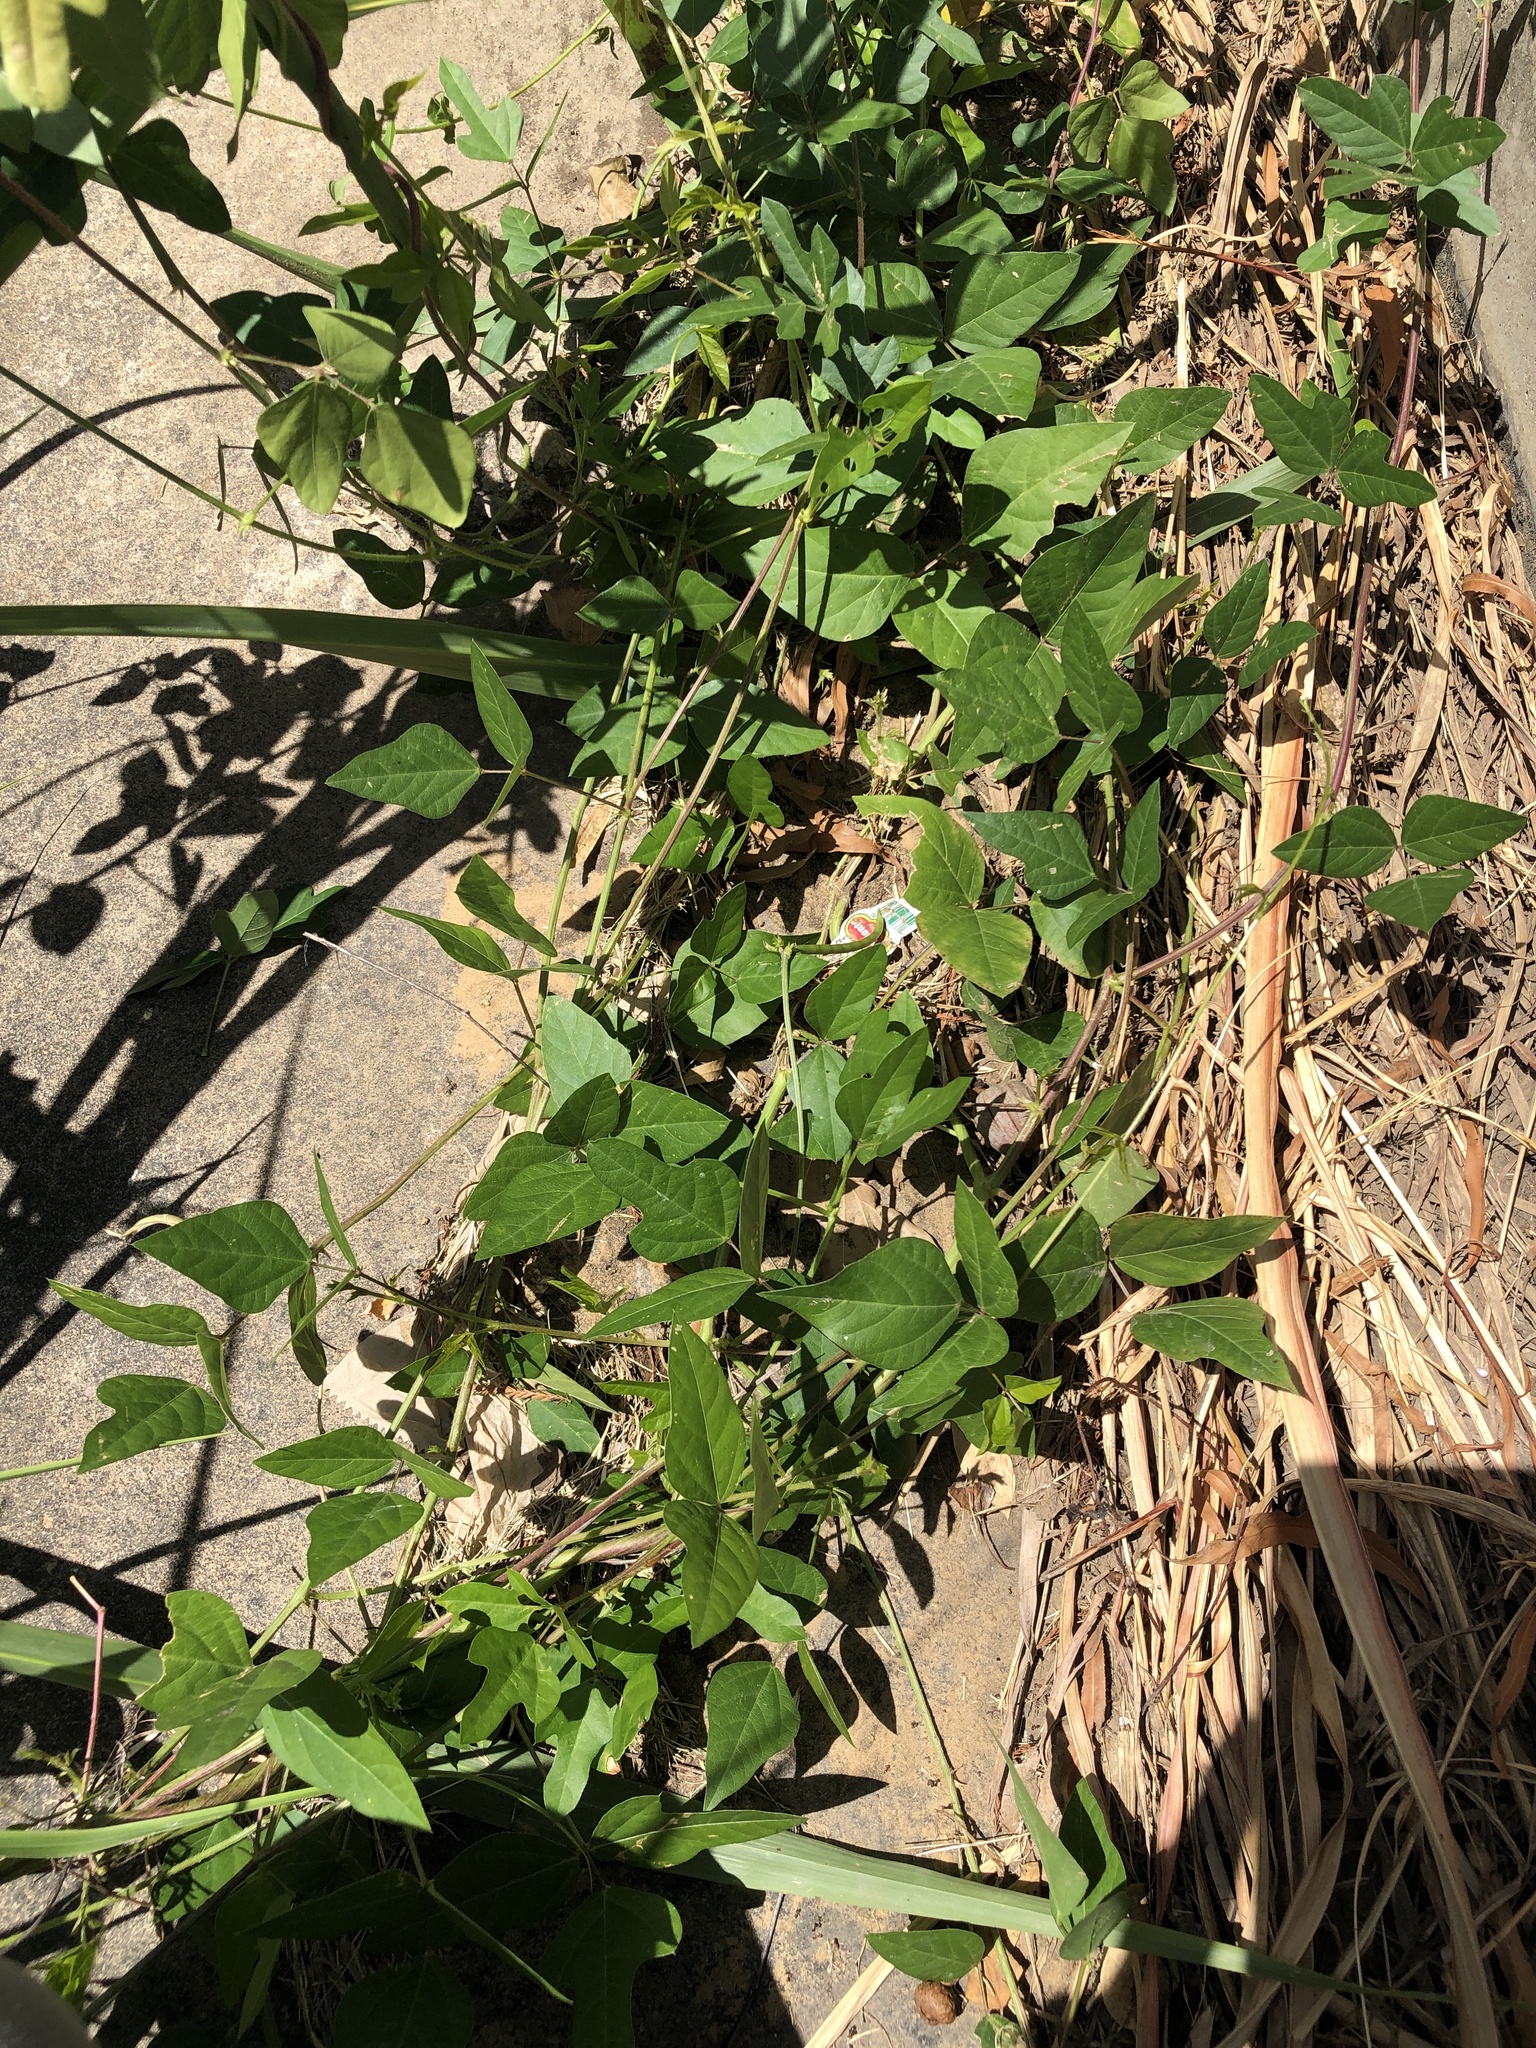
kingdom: Plantae
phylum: Tracheophyta
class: Magnoliopsida
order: Fabales
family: Fabaceae
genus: Strophostyles
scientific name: Strophostyles helvola
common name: Trailing wild bean
